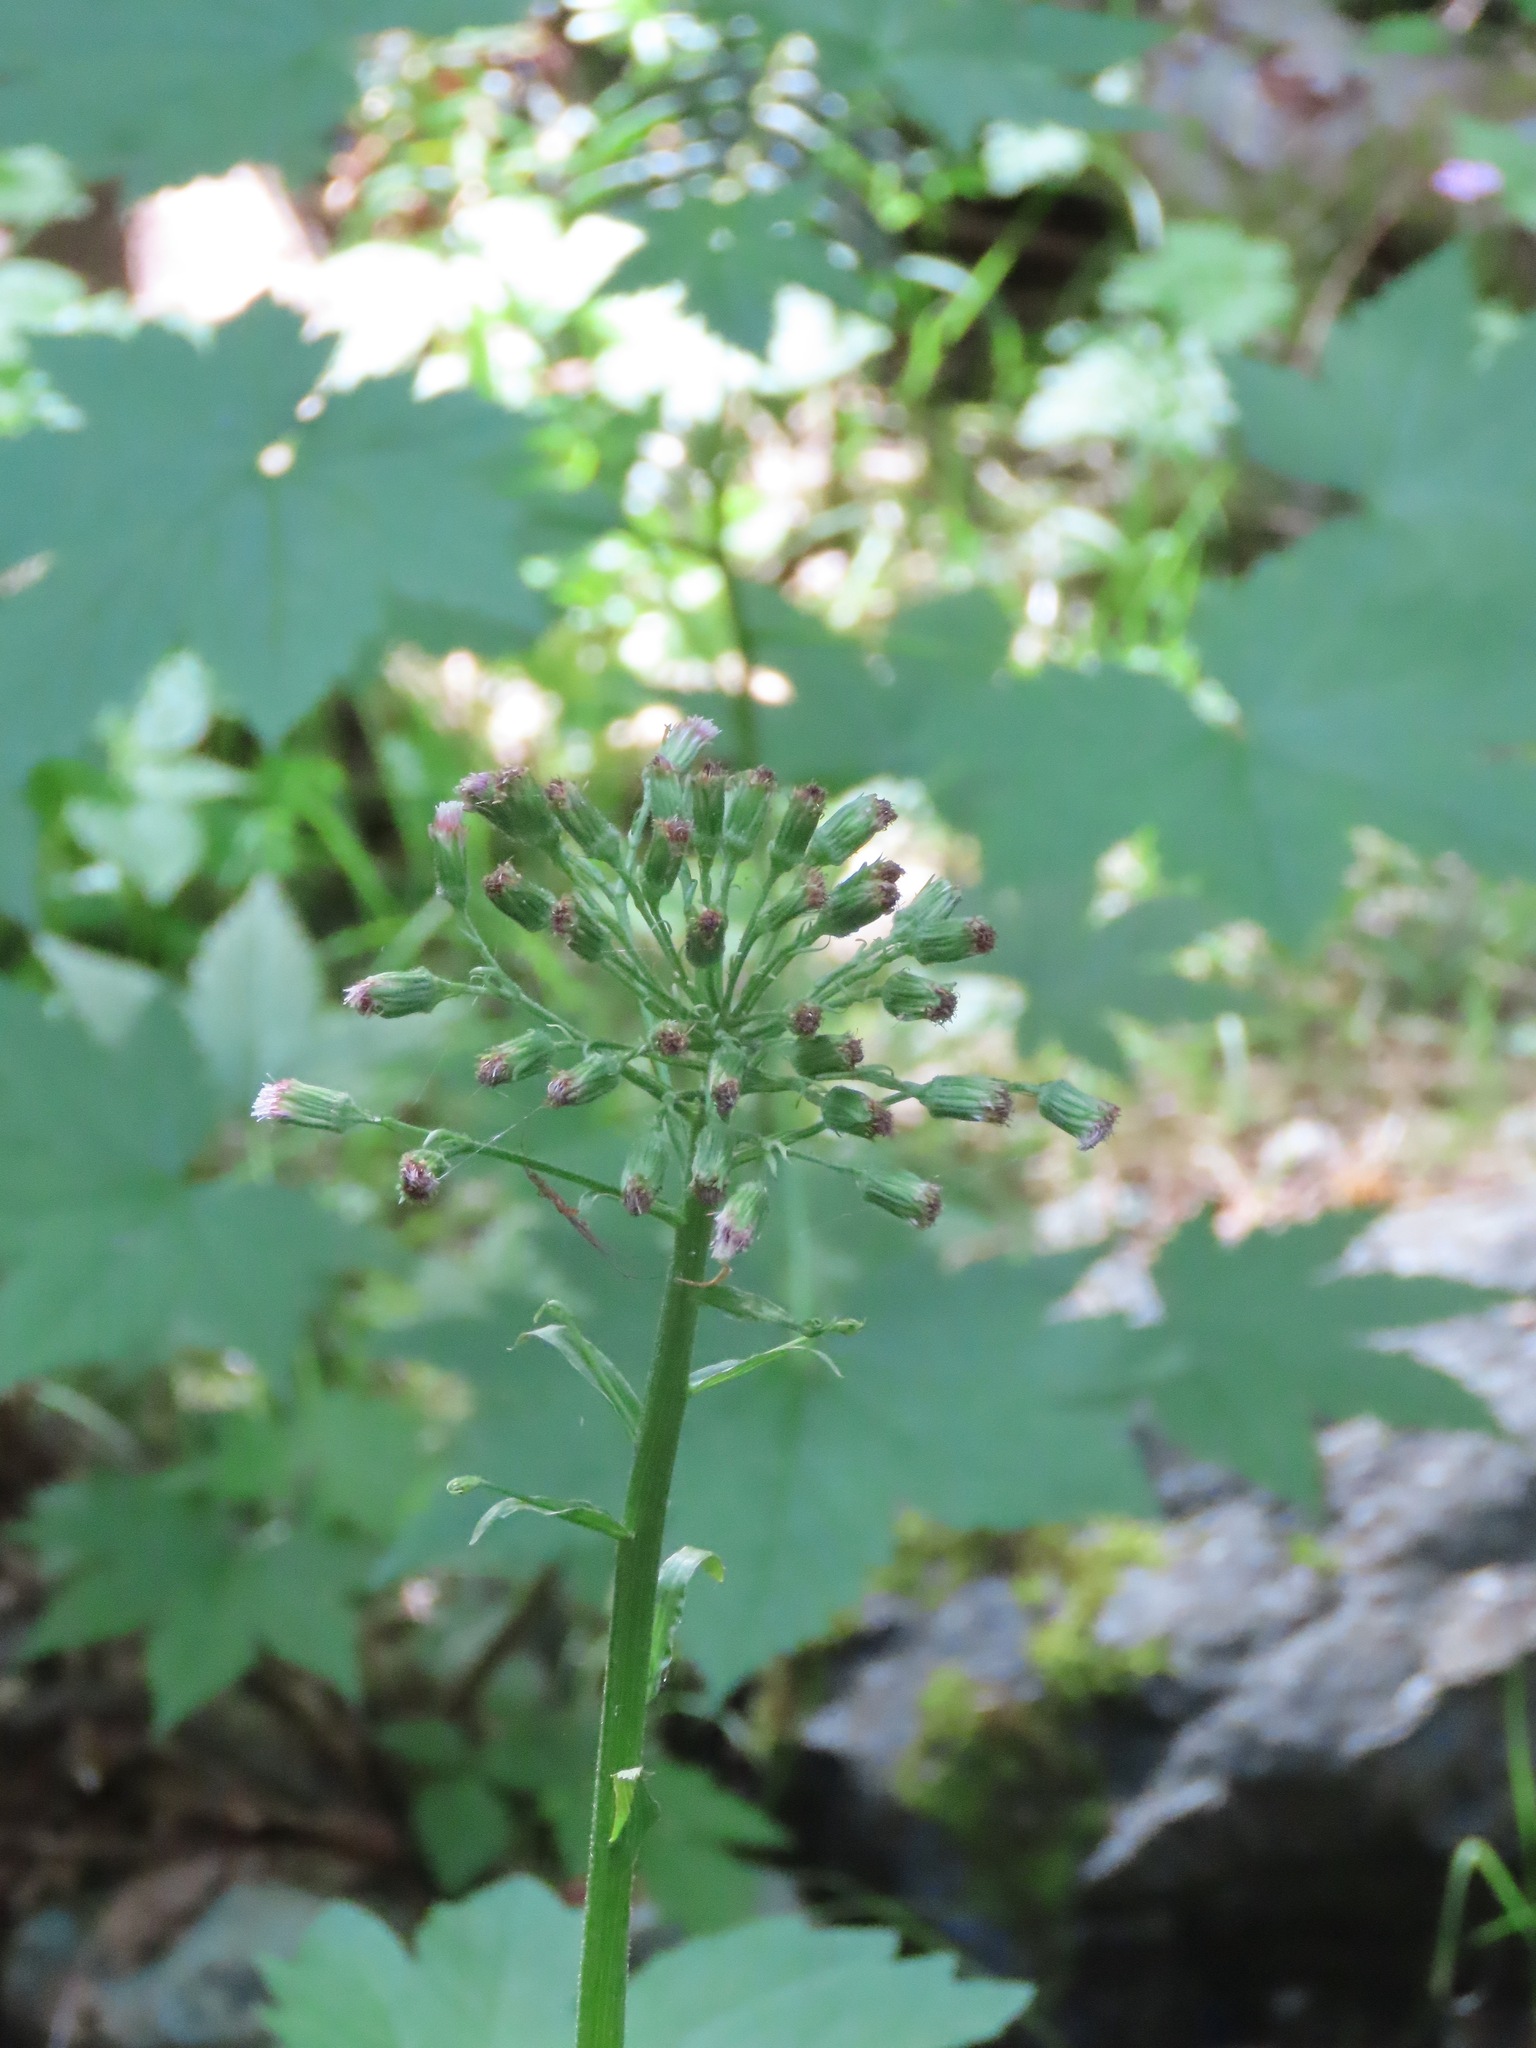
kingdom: Plantae
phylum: Tracheophyta
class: Magnoliopsida
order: Asterales
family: Asteraceae
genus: Petasites
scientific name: Petasites frigidus
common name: Arctic butterbur
